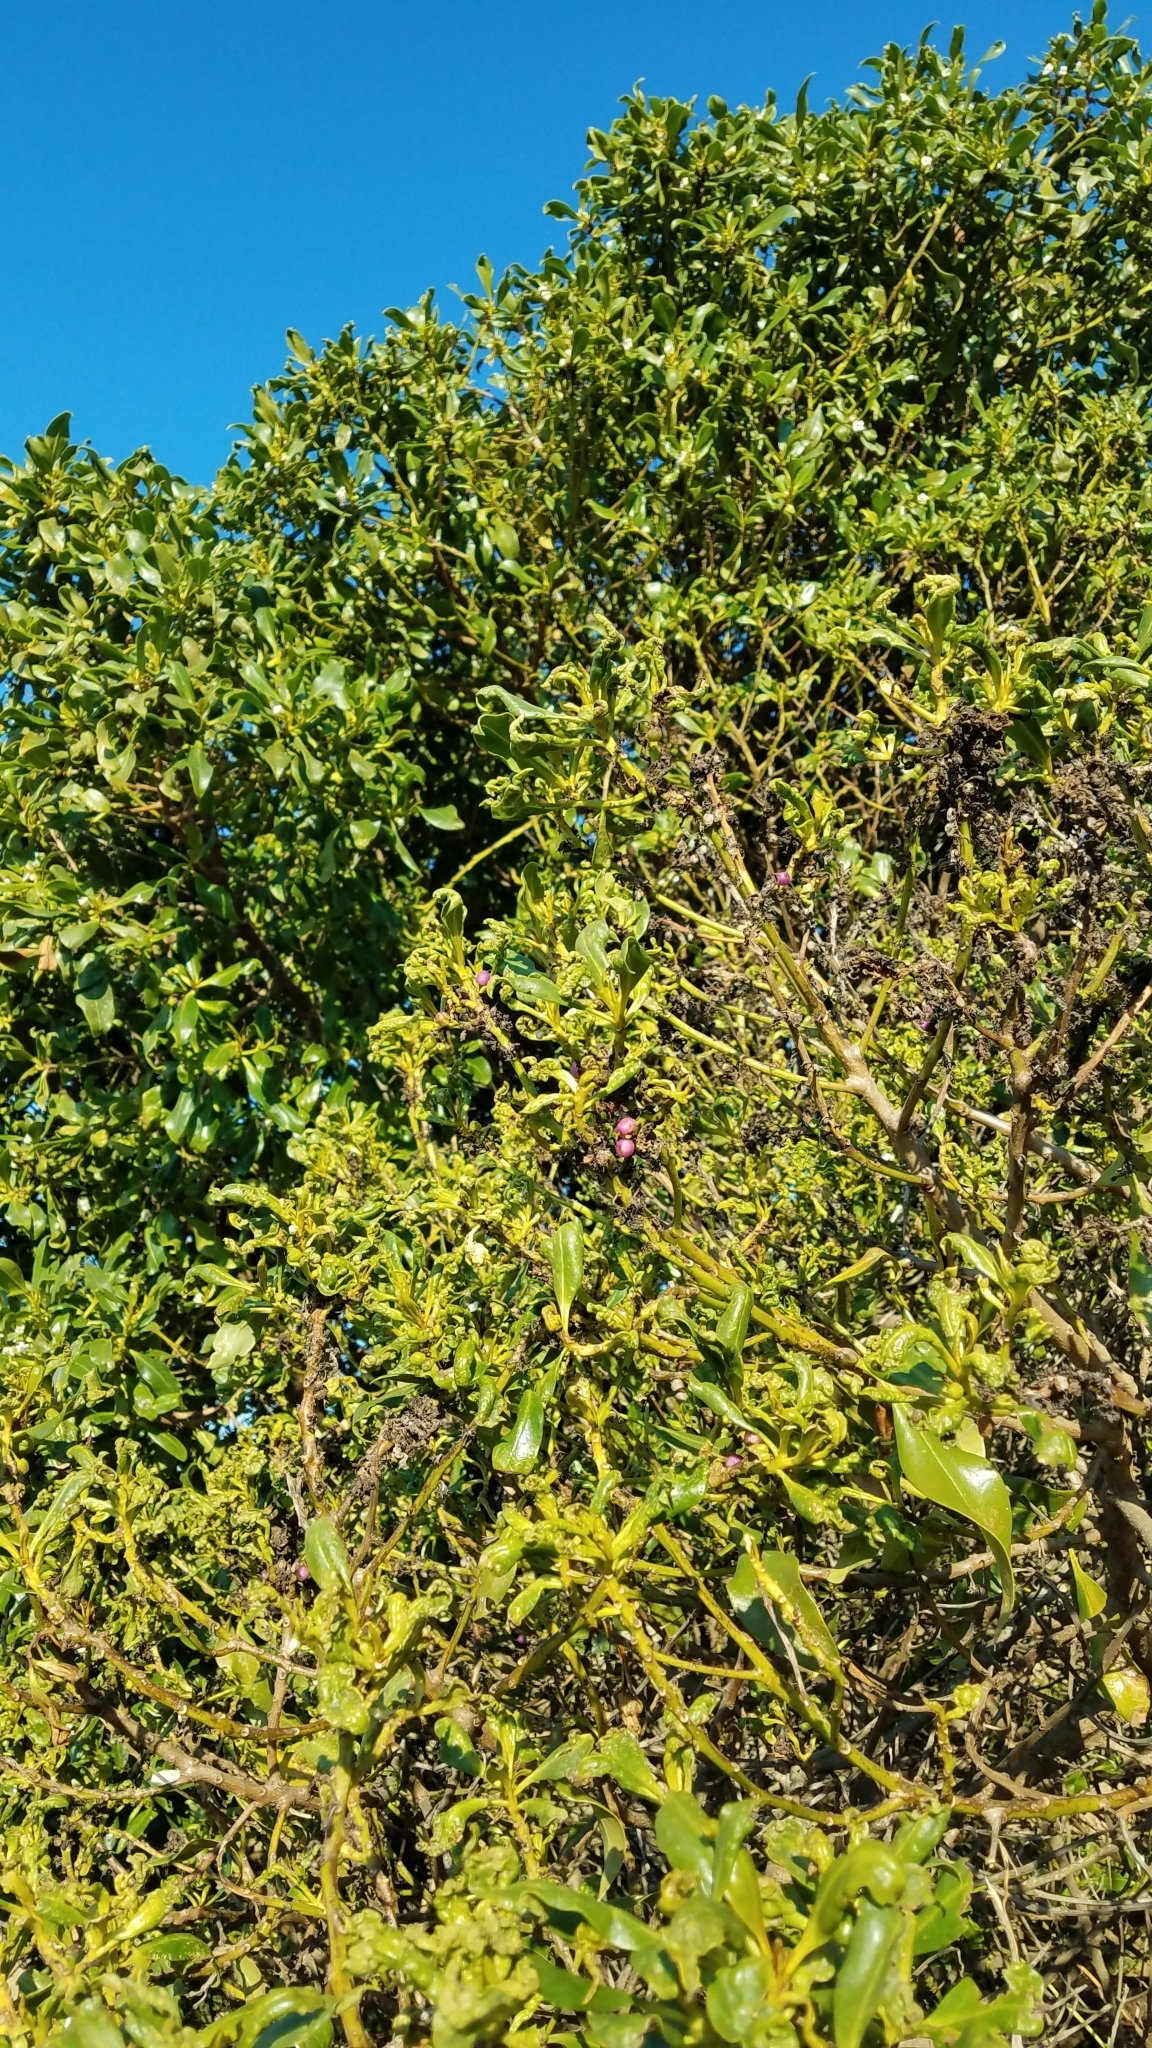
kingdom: Plantae
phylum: Tracheophyta
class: Magnoliopsida
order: Lamiales
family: Scrophulariaceae
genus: Myoporum
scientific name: Myoporum laetum
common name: Ngaio tree
